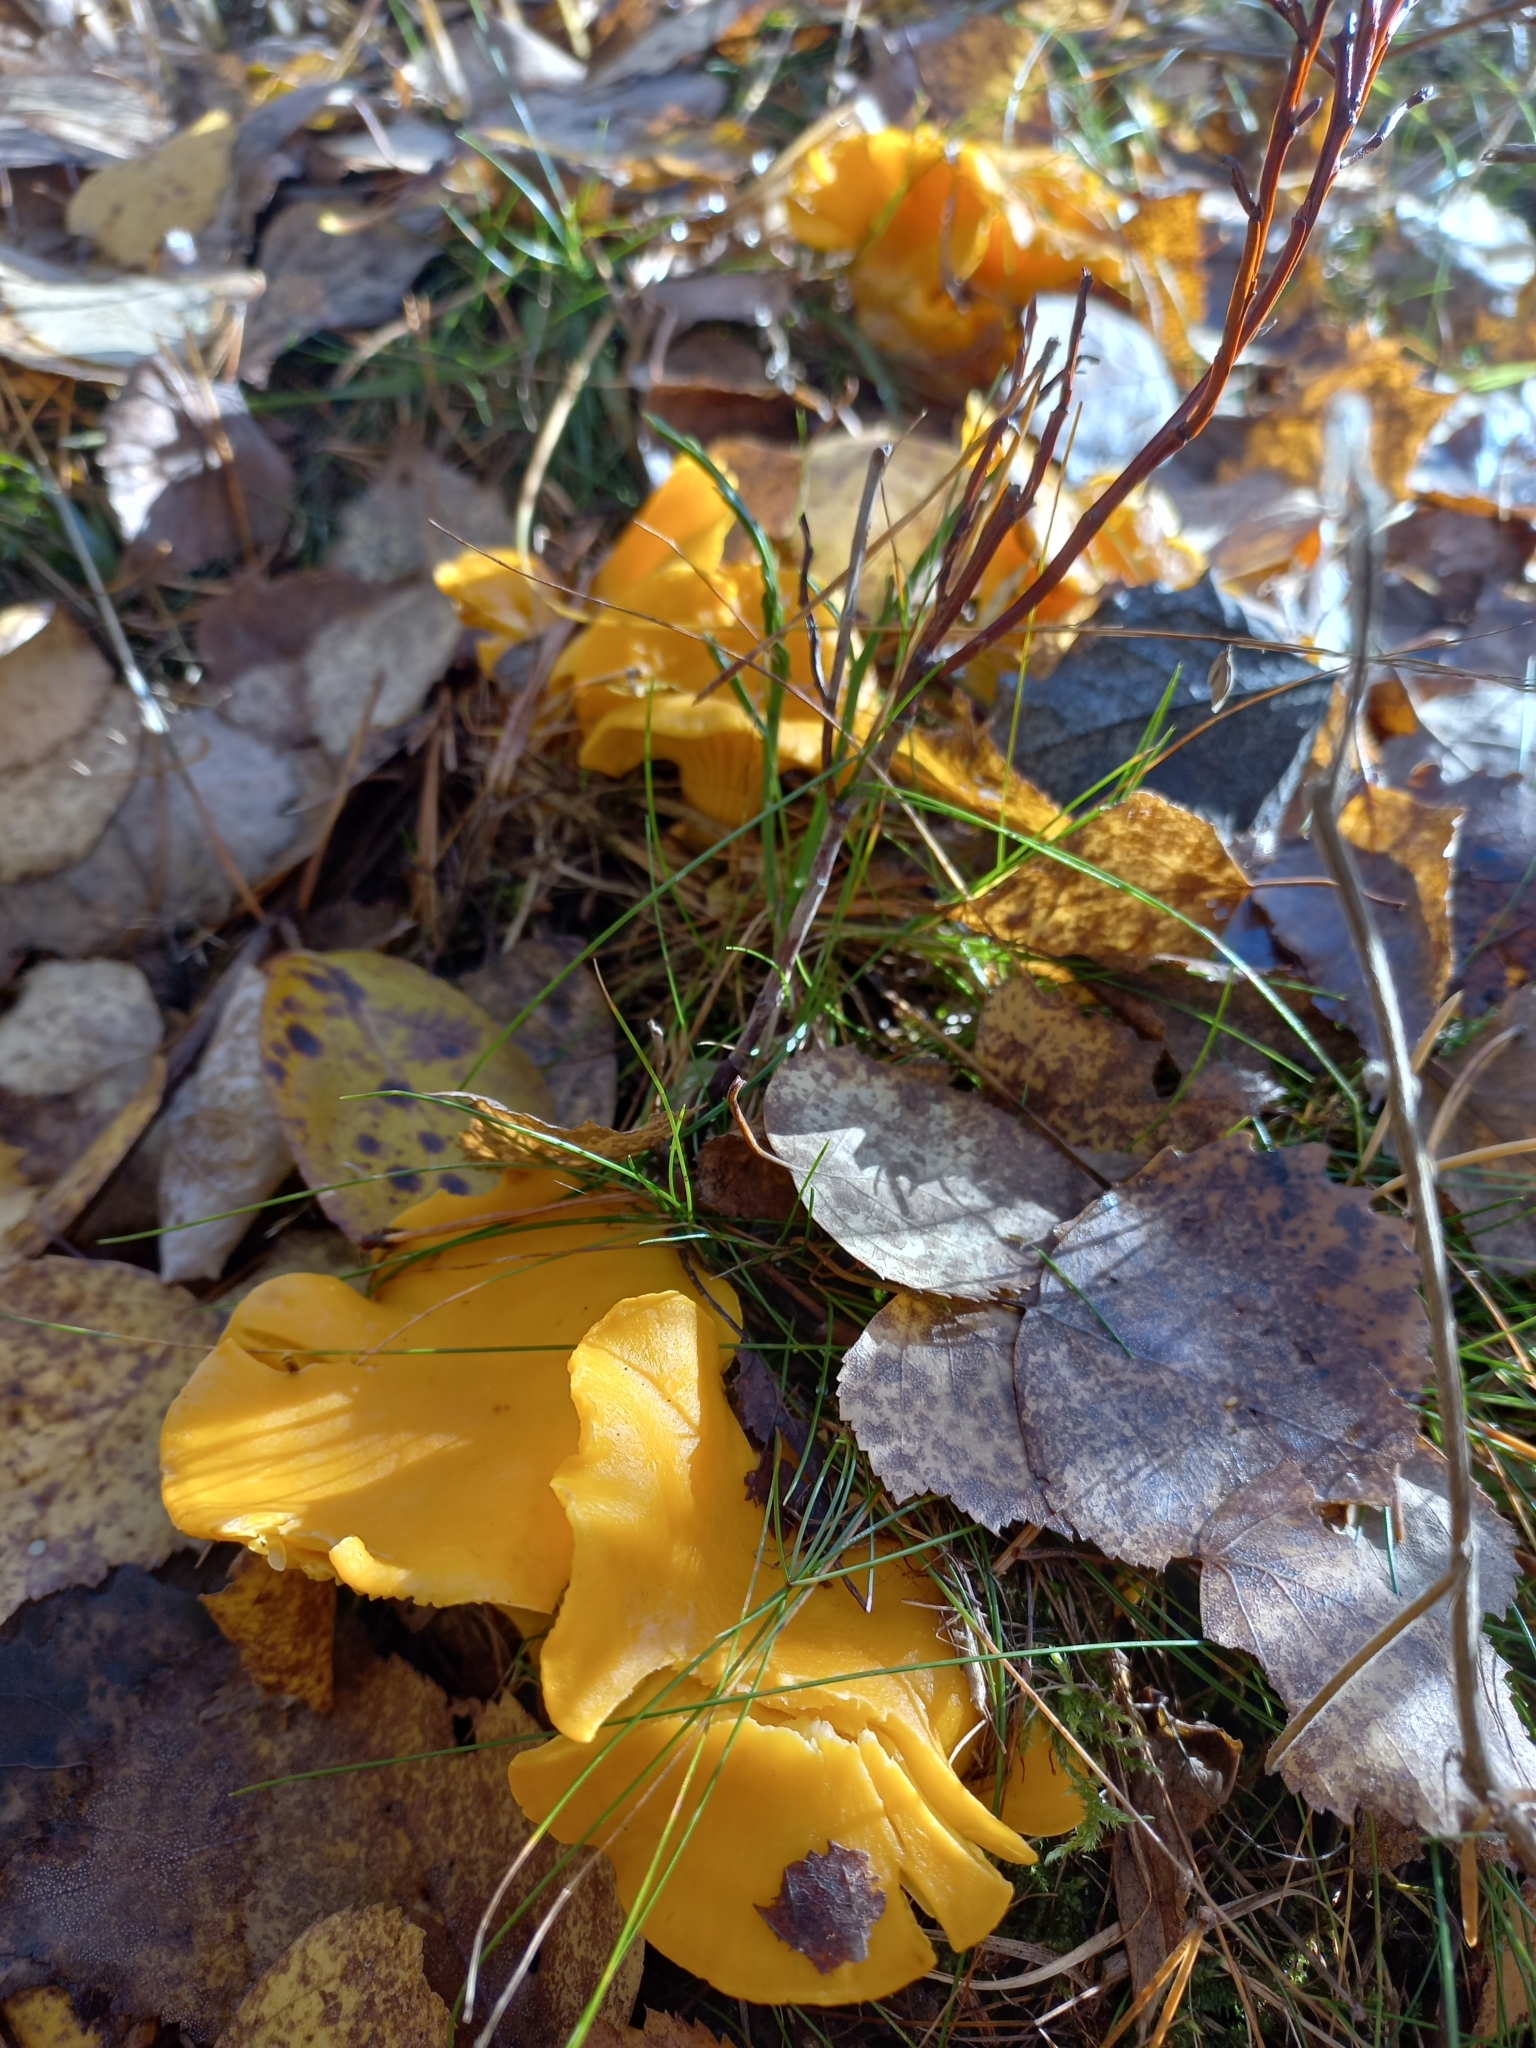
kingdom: Fungi
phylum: Basidiomycota
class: Agaricomycetes
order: Cantharellales
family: Hydnaceae
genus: Cantharellus
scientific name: Cantharellus cibarius
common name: Chanterelle
